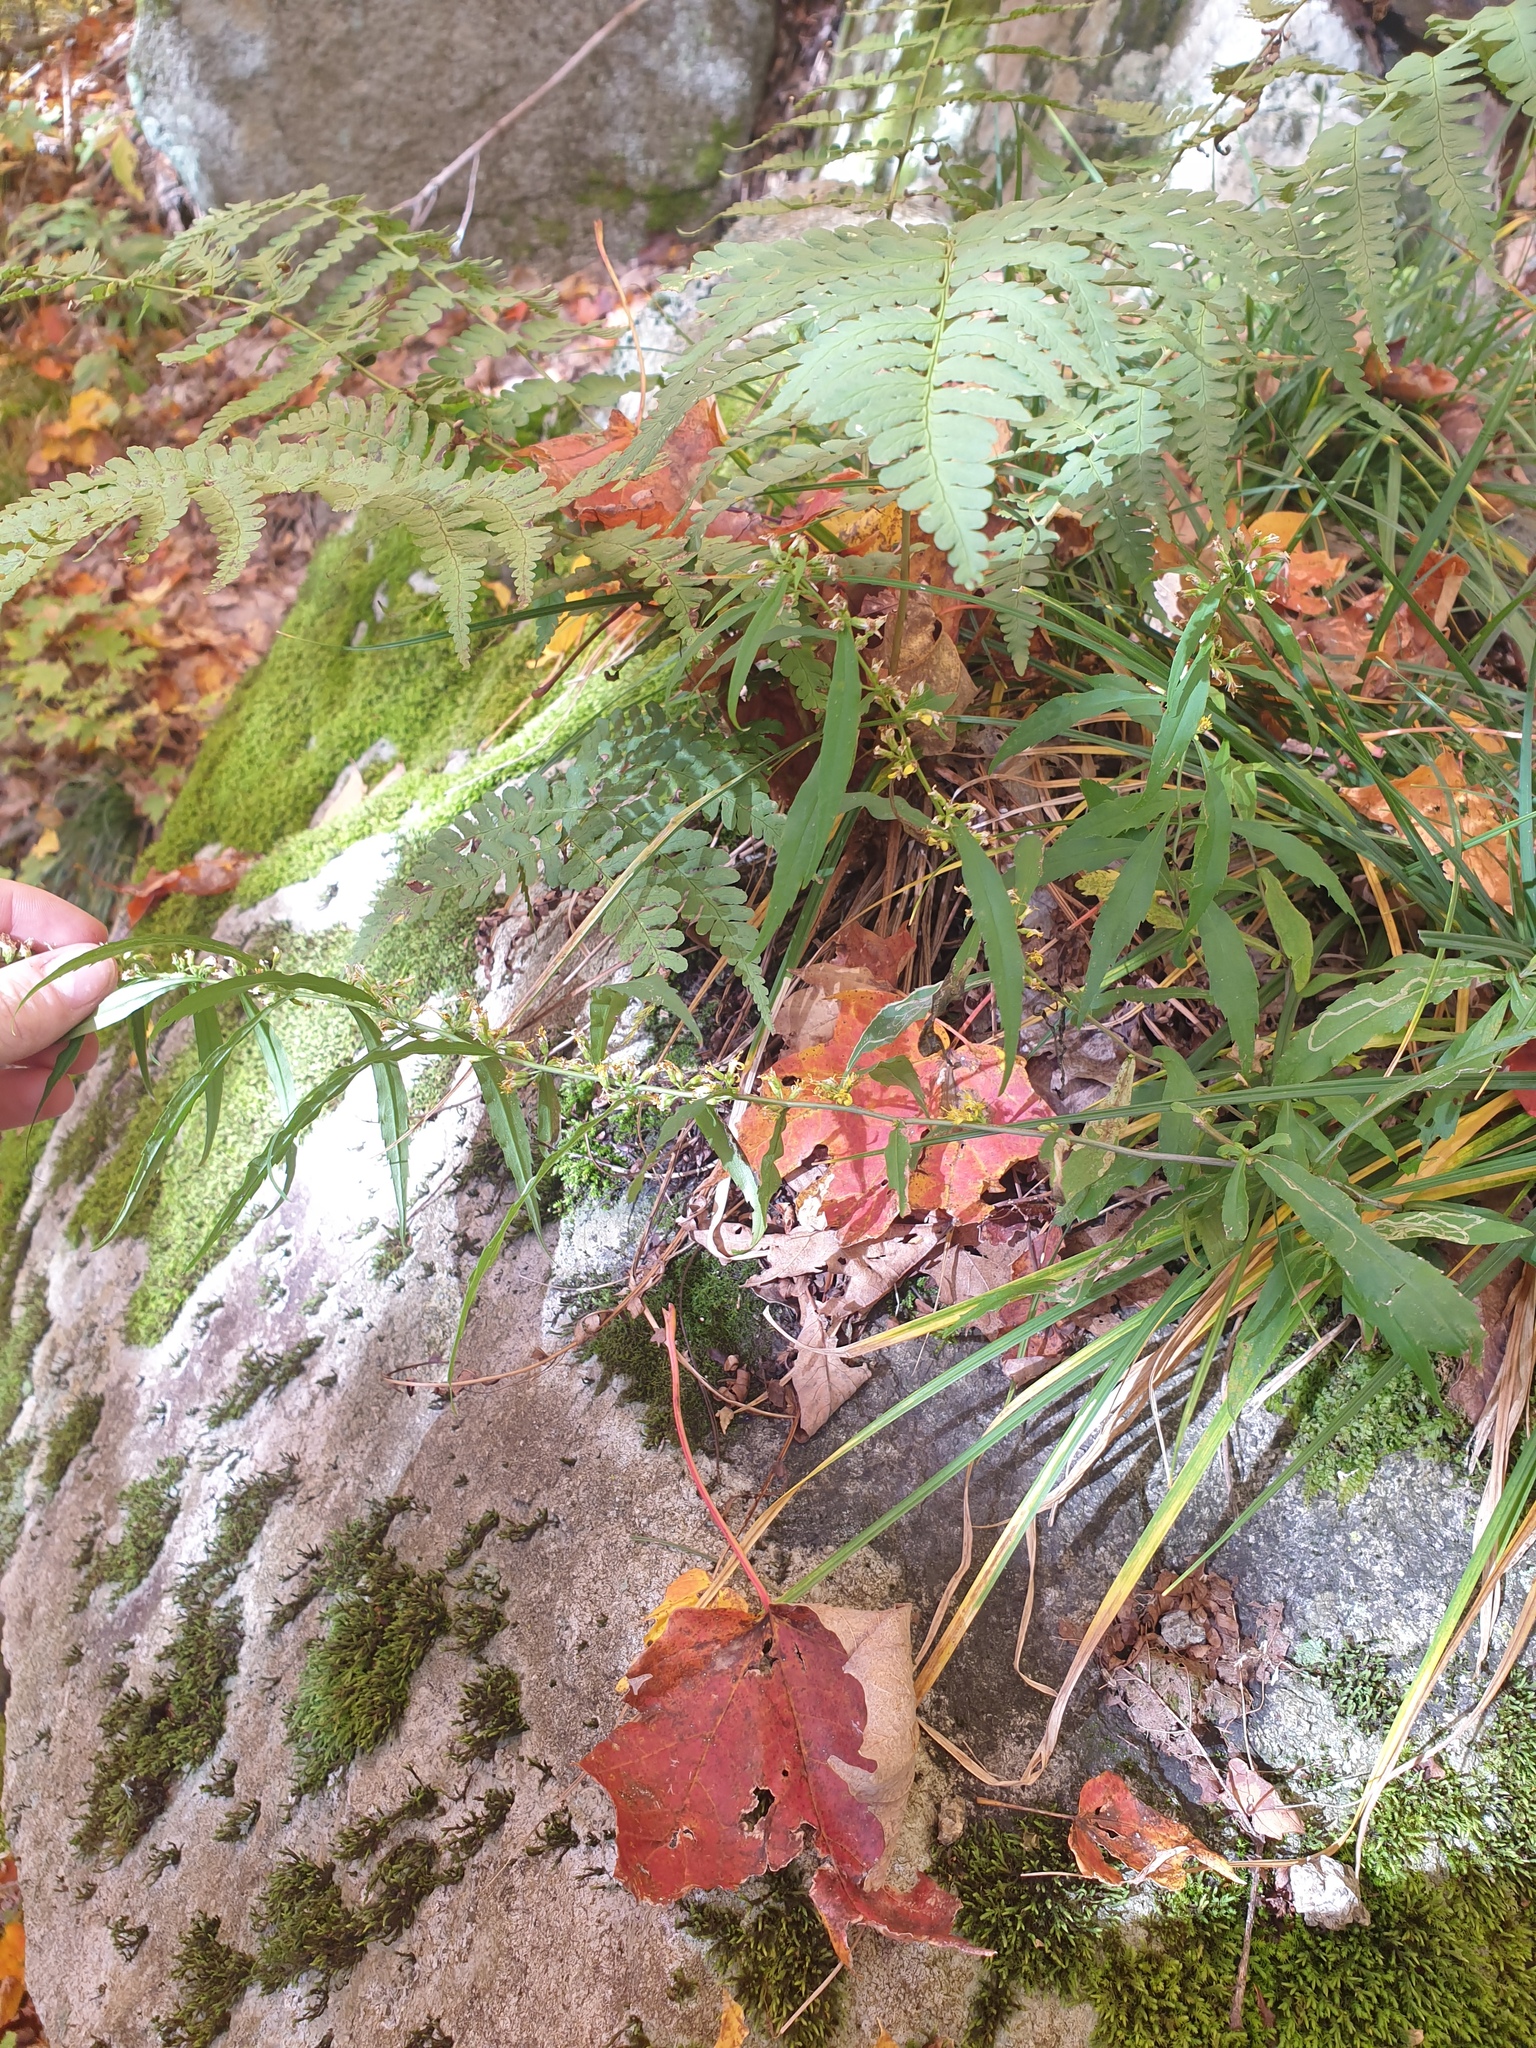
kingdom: Plantae
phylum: Tracheophyta
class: Magnoliopsida
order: Asterales
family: Asteraceae
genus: Solidago
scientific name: Solidago caesia
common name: Woodland goldenrod
